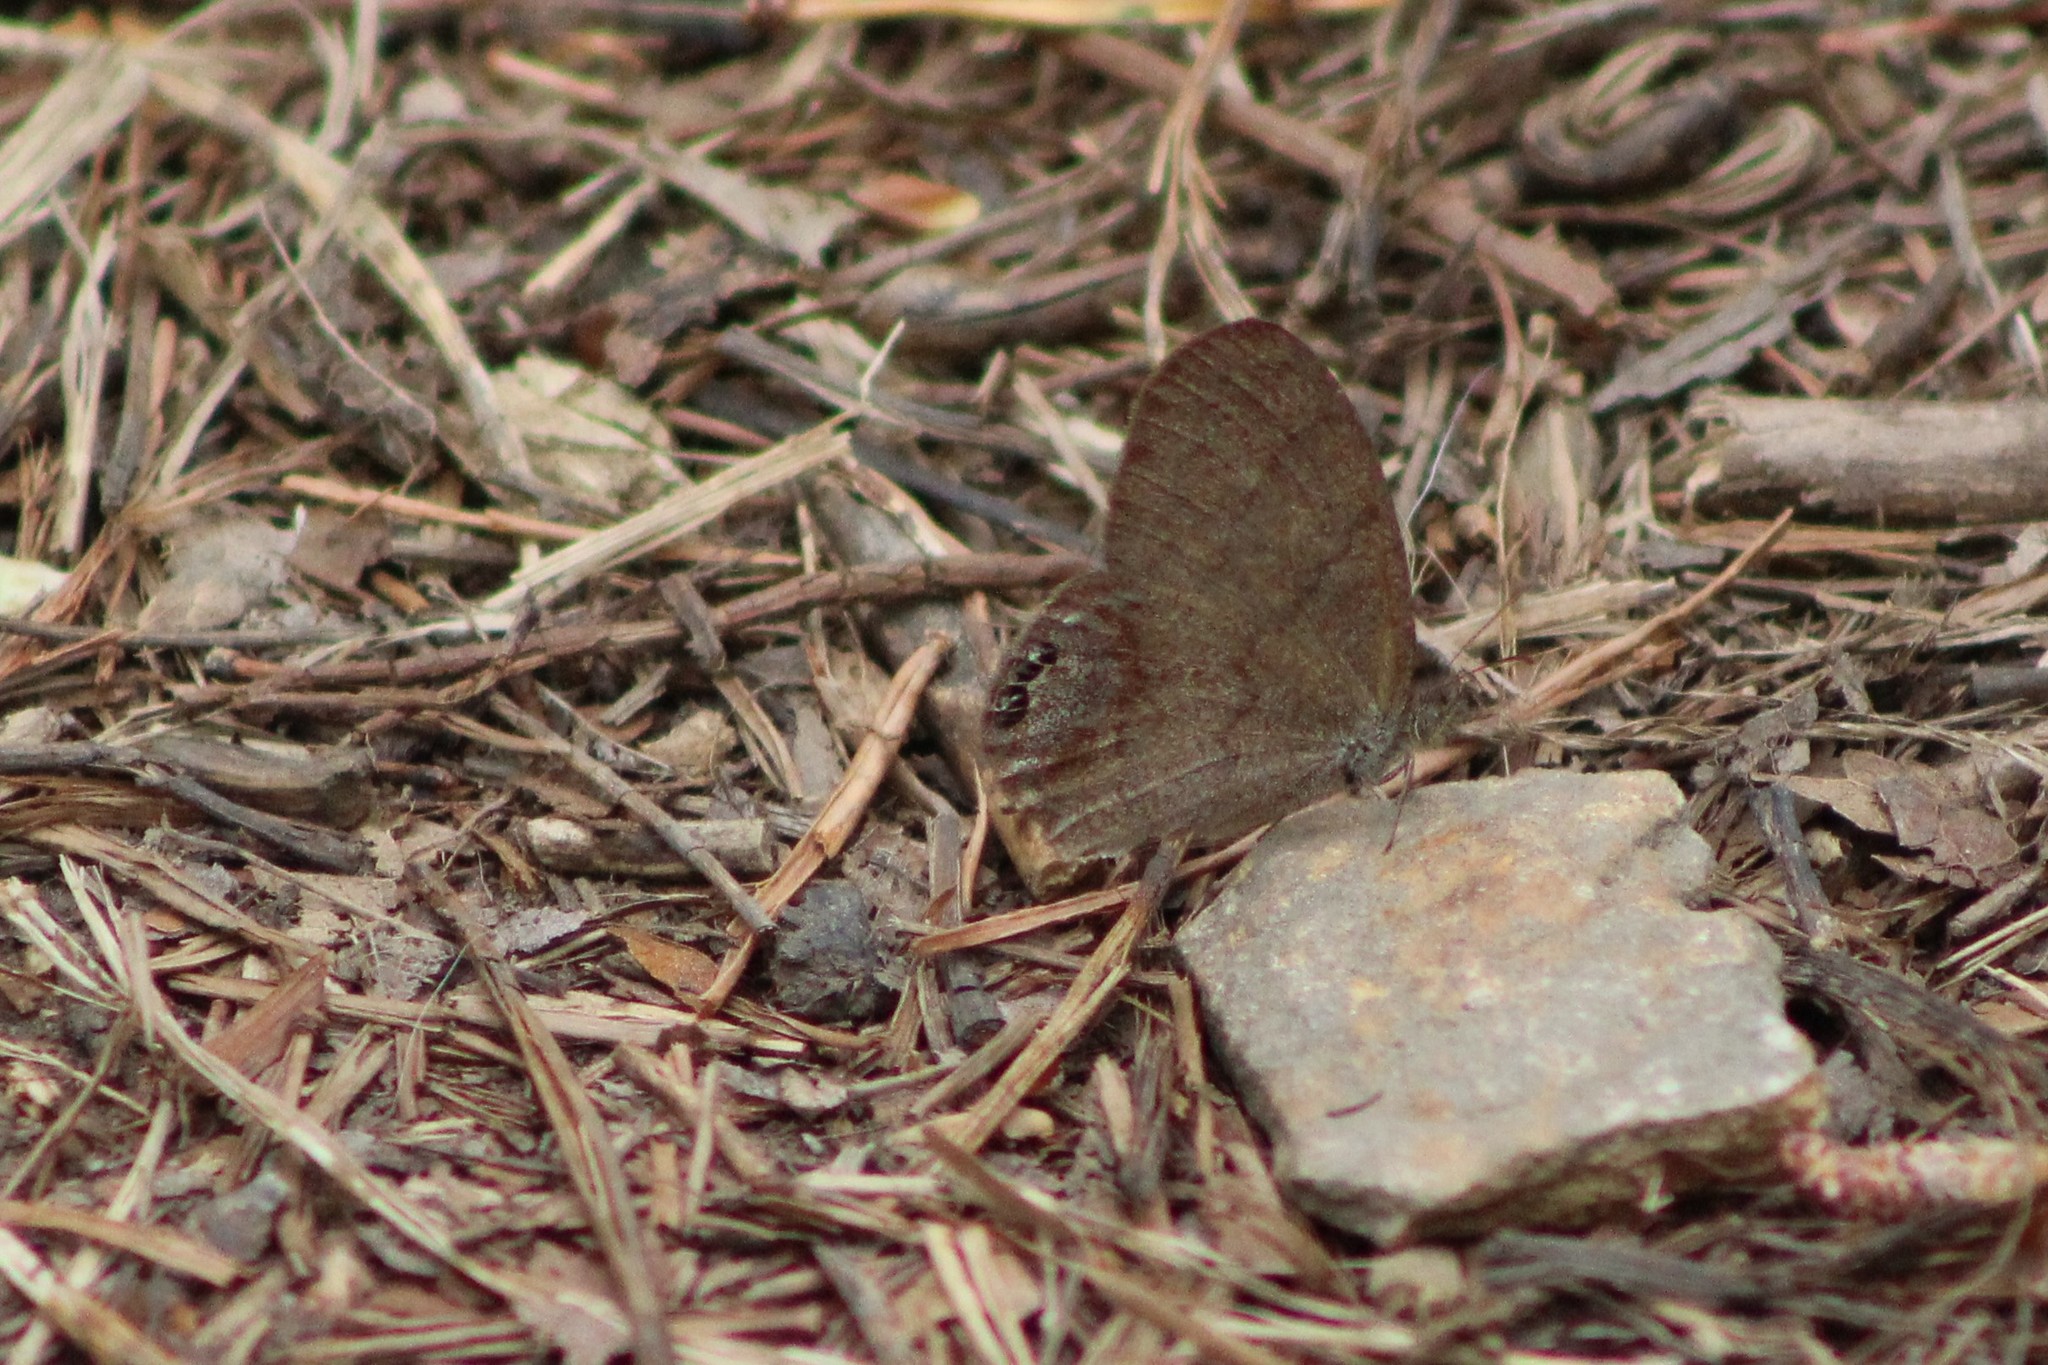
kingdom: Animalia
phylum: Arthropoda
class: Insecta
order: Lepidoptera
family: Nymphalidae
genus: Euptychia
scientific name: Euptychia cornelius
